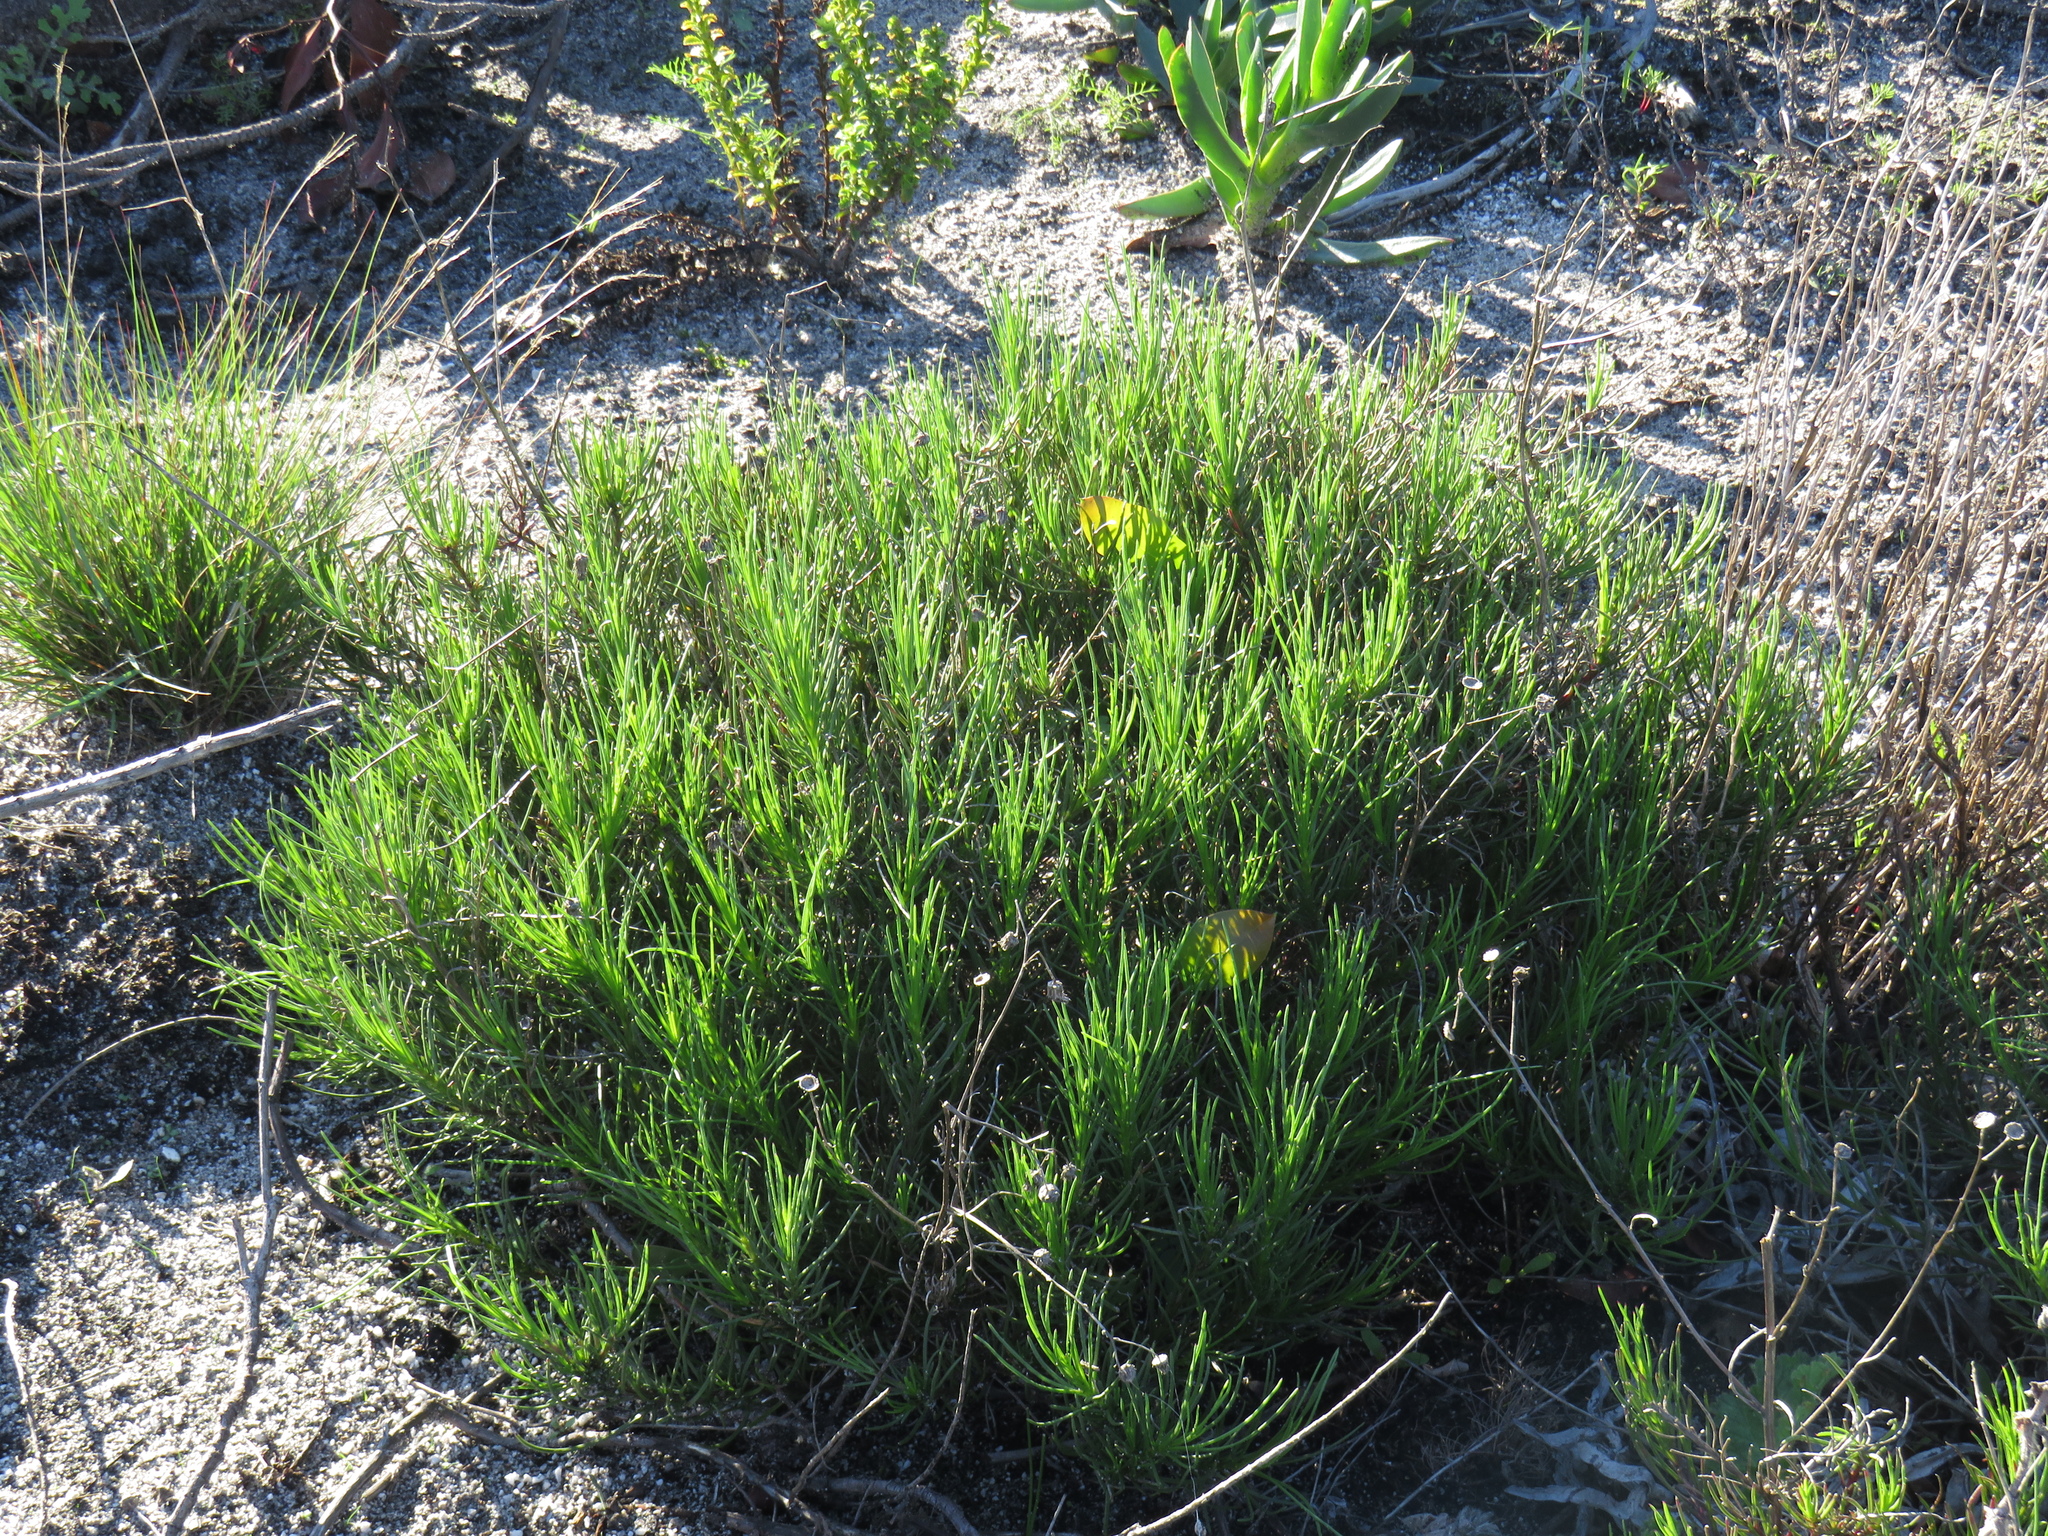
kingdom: Plantae
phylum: Tracheophyta
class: Magnoliopsida
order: Asterales
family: Asteraceae
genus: Senecio
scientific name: Senecio umbellatus
